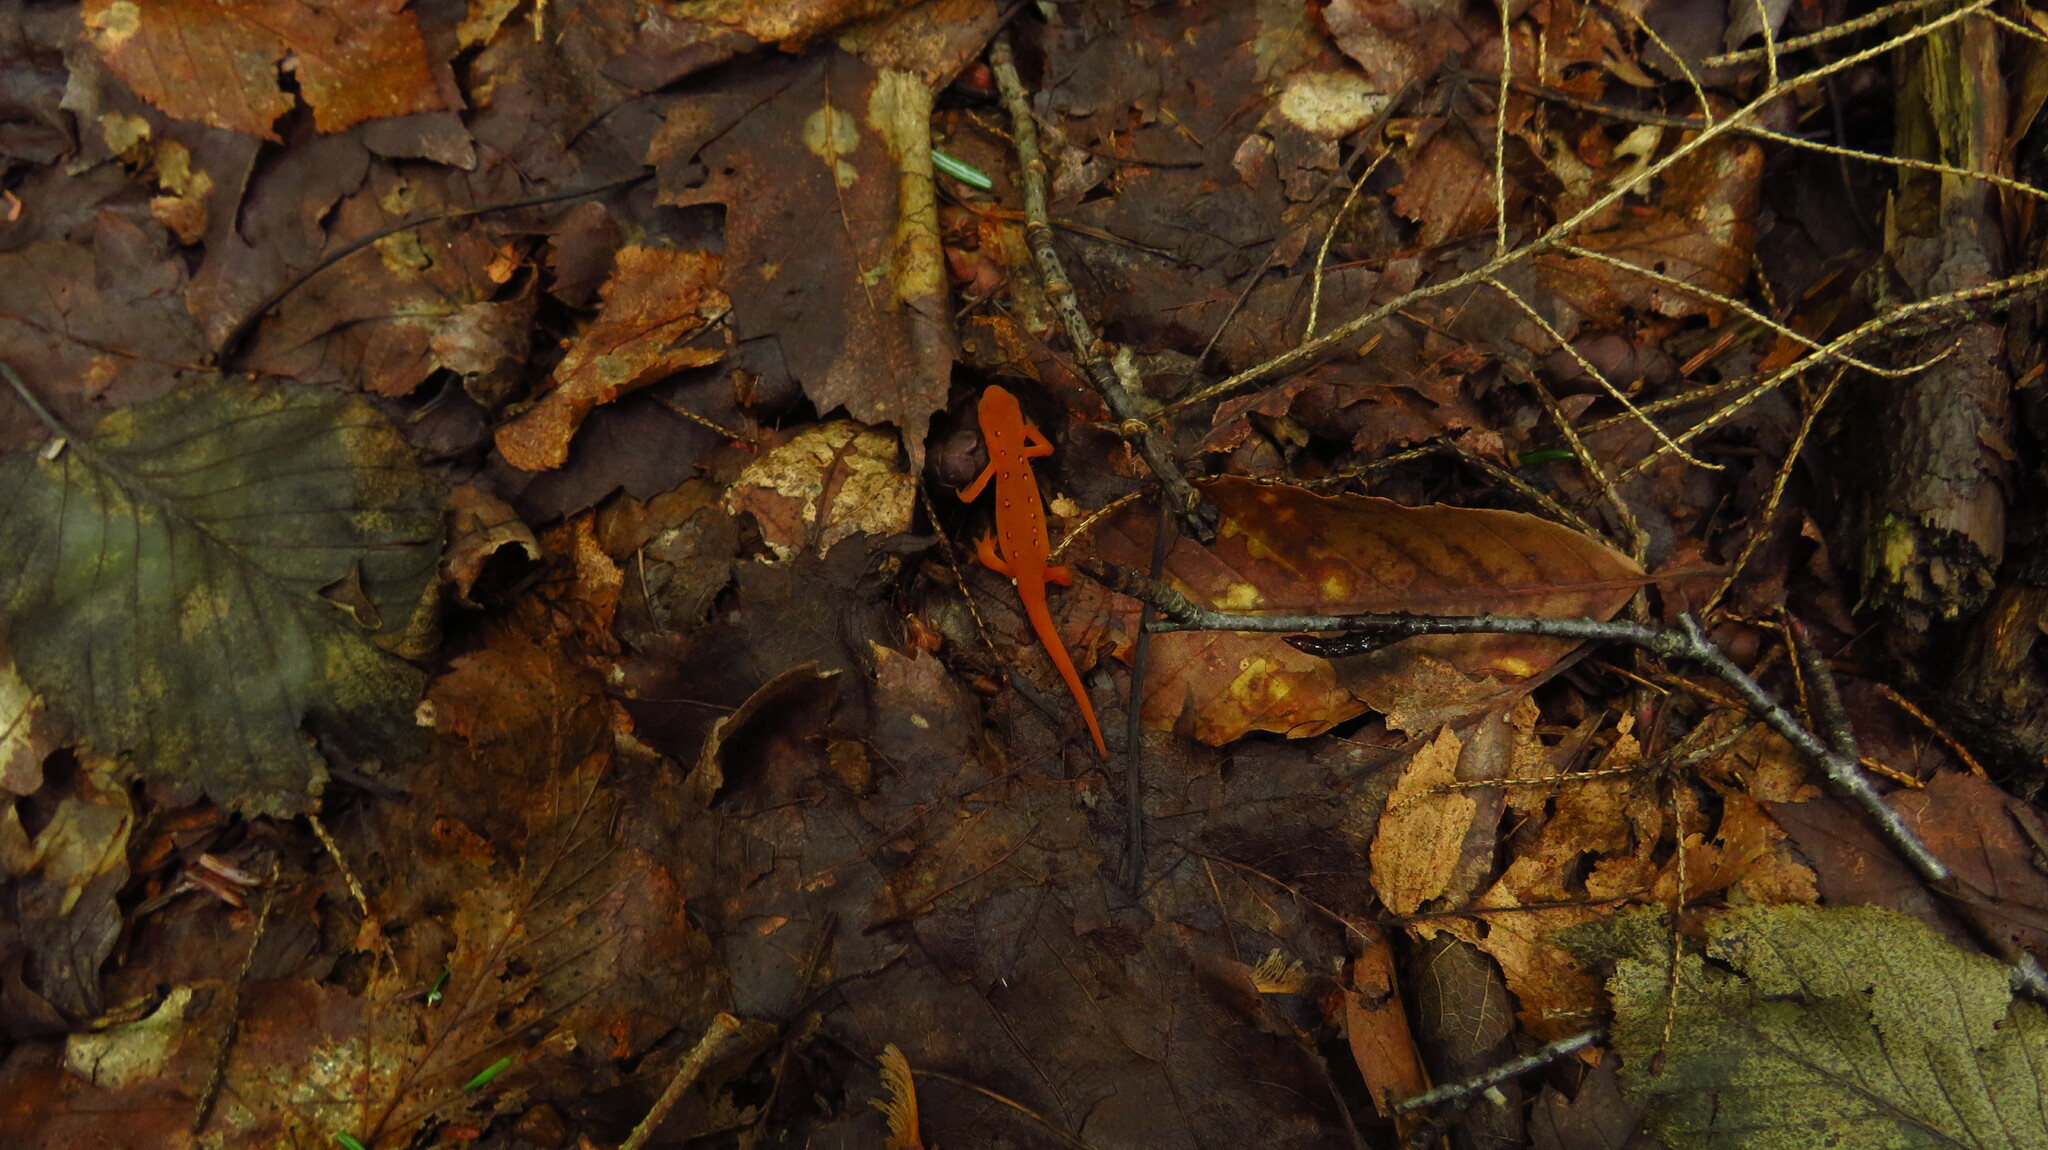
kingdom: Animalia
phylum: Chordata
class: Amphibia
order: Caudata
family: Salamandridae
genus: Notophthalmus
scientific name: Notophthalmus viridescens
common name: Eastern newt
